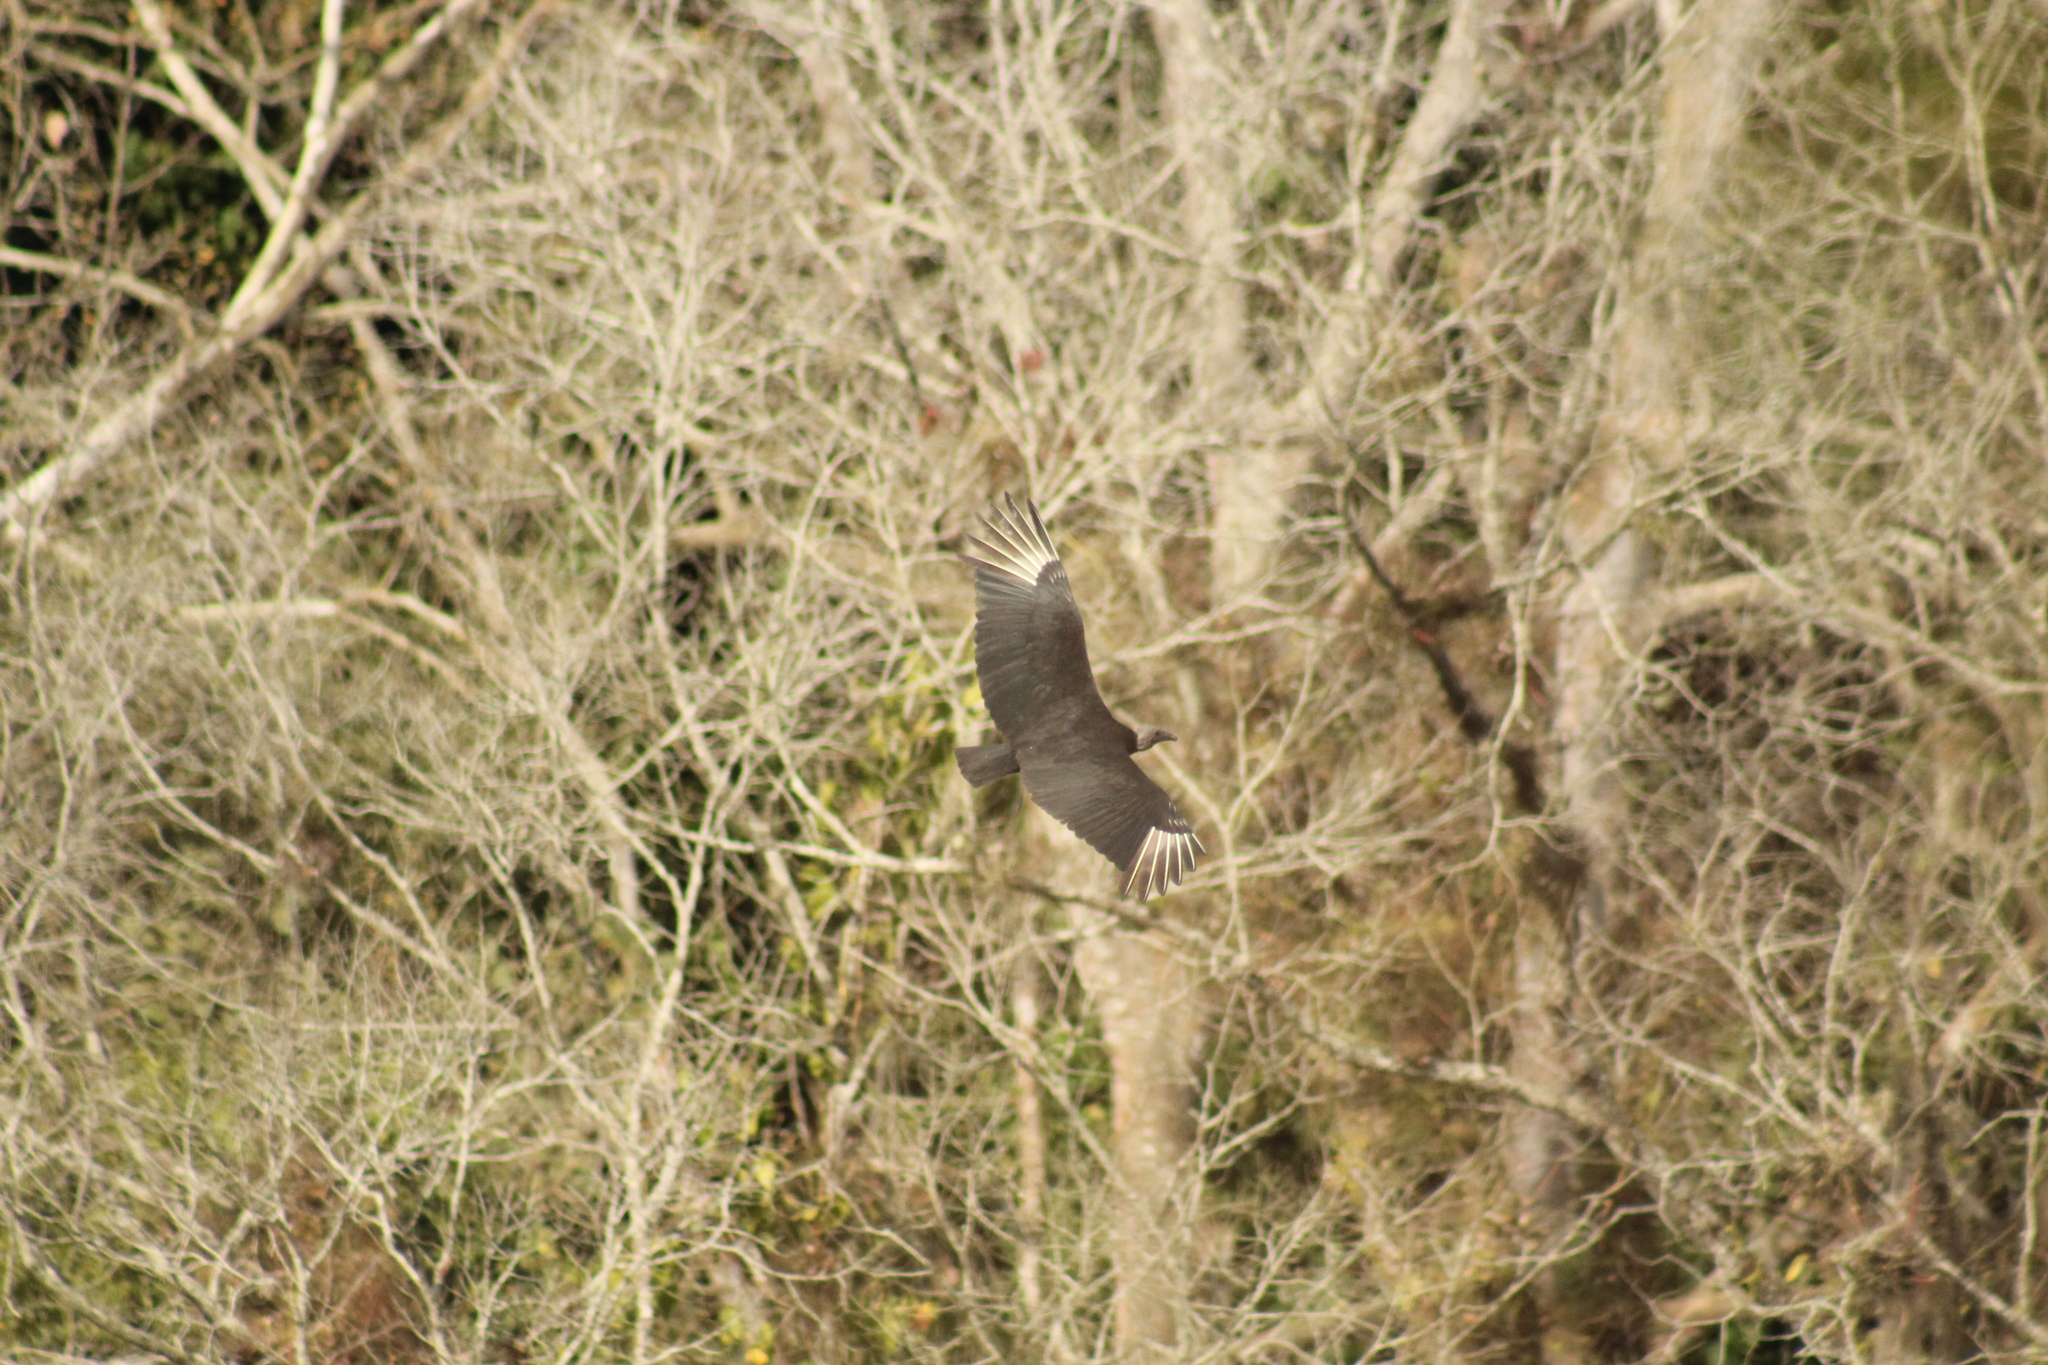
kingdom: Animalia
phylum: Chordata
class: Aves
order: Accipitriformes
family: Cathartidae
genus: Coragyps
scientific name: Coragyps atratus
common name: Black vulture
